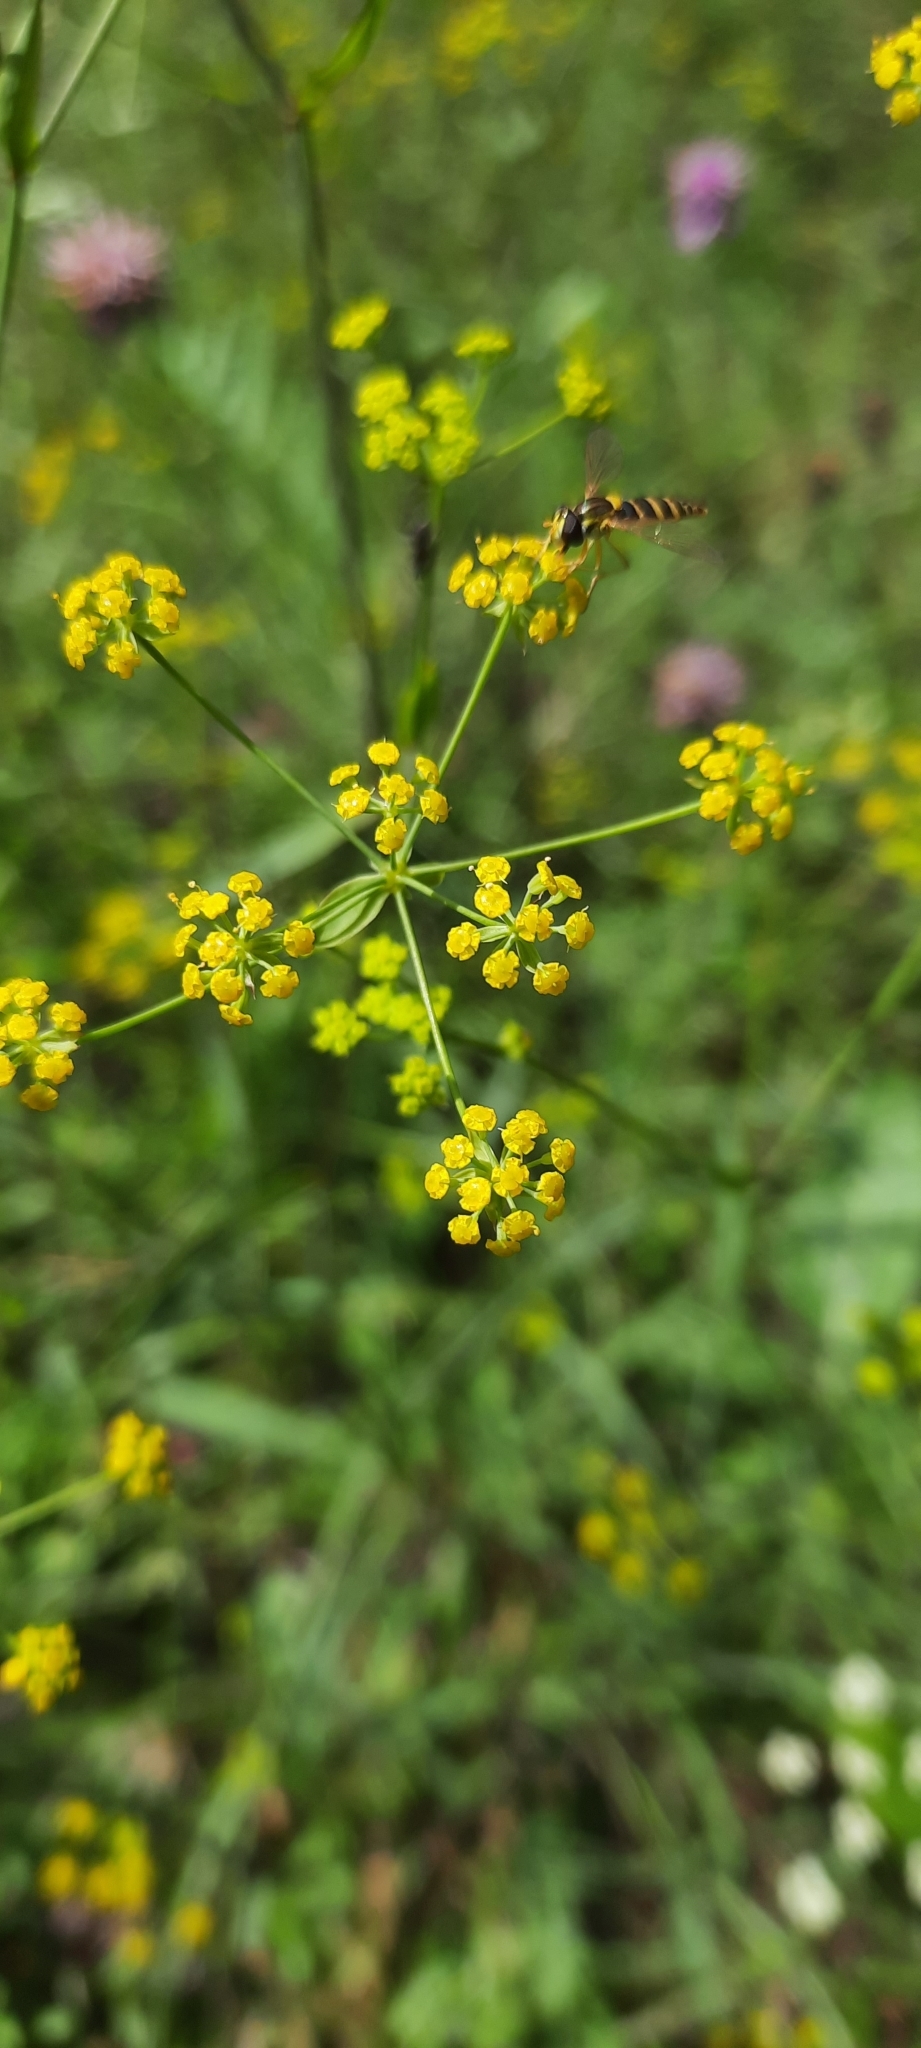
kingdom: Plantae
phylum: Tracheophyta
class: Magnoliopsida
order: Apiales
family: Apiaceae
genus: Bupleurum
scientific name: Bupleurum falcatum
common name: Sickle-leaved hare's-ear
